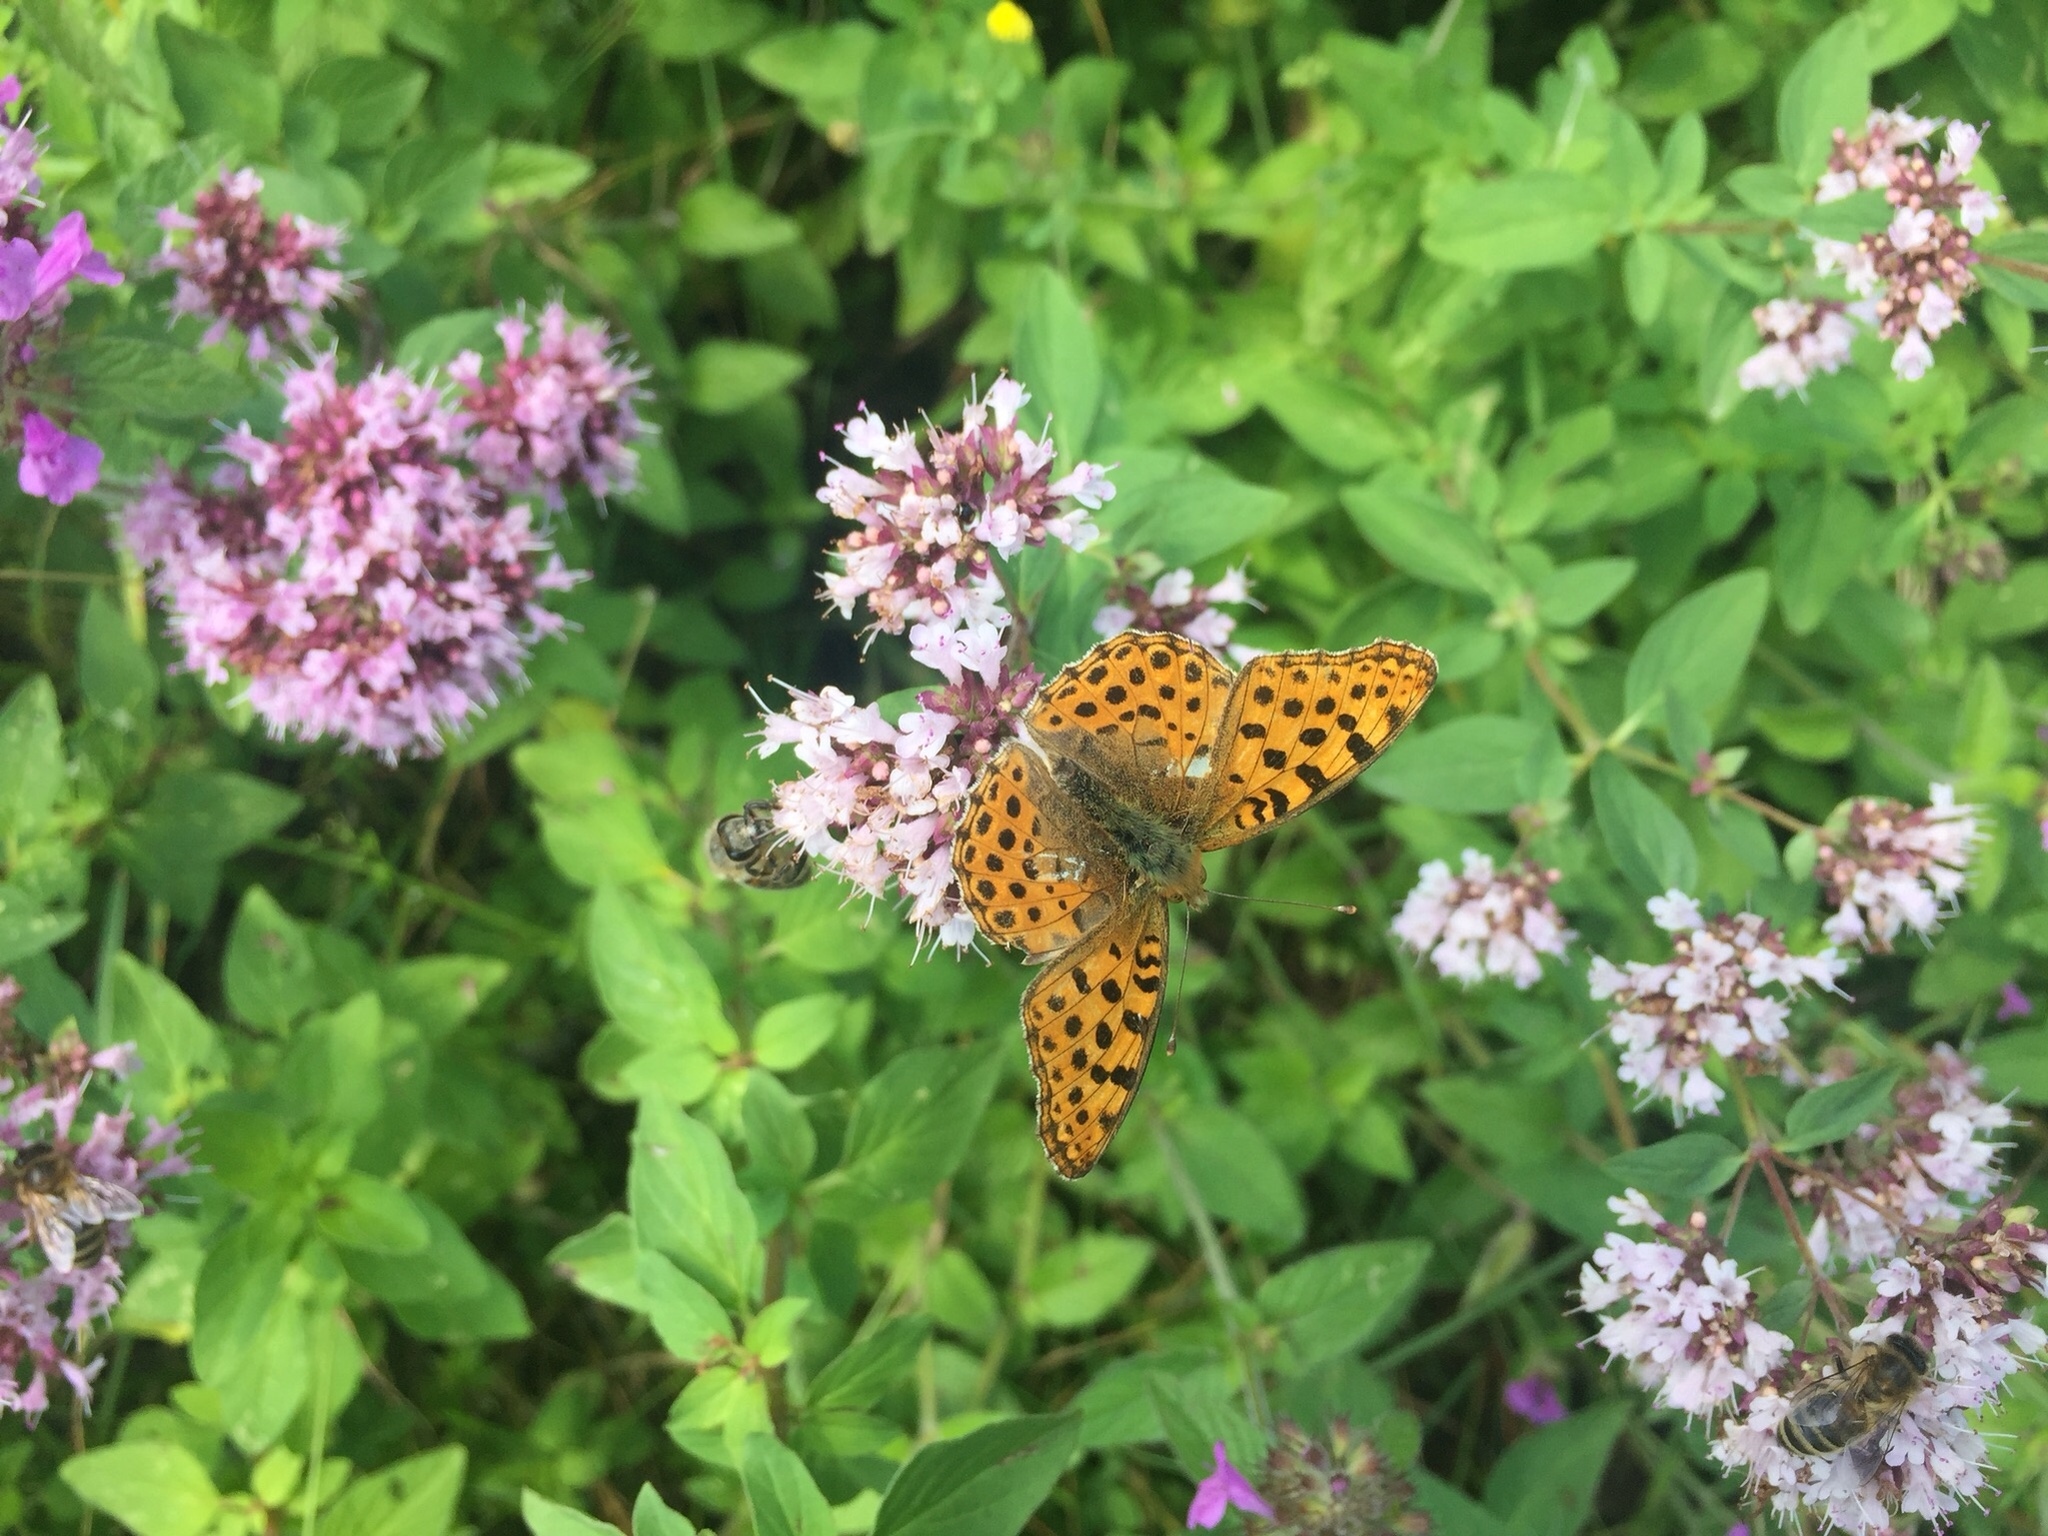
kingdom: Animalia
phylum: Arthropoda
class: Insecta
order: Lepidoptera
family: Nymphalidae
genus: Issoria
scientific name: Issoria lathonia
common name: Queen of spain fritillary
